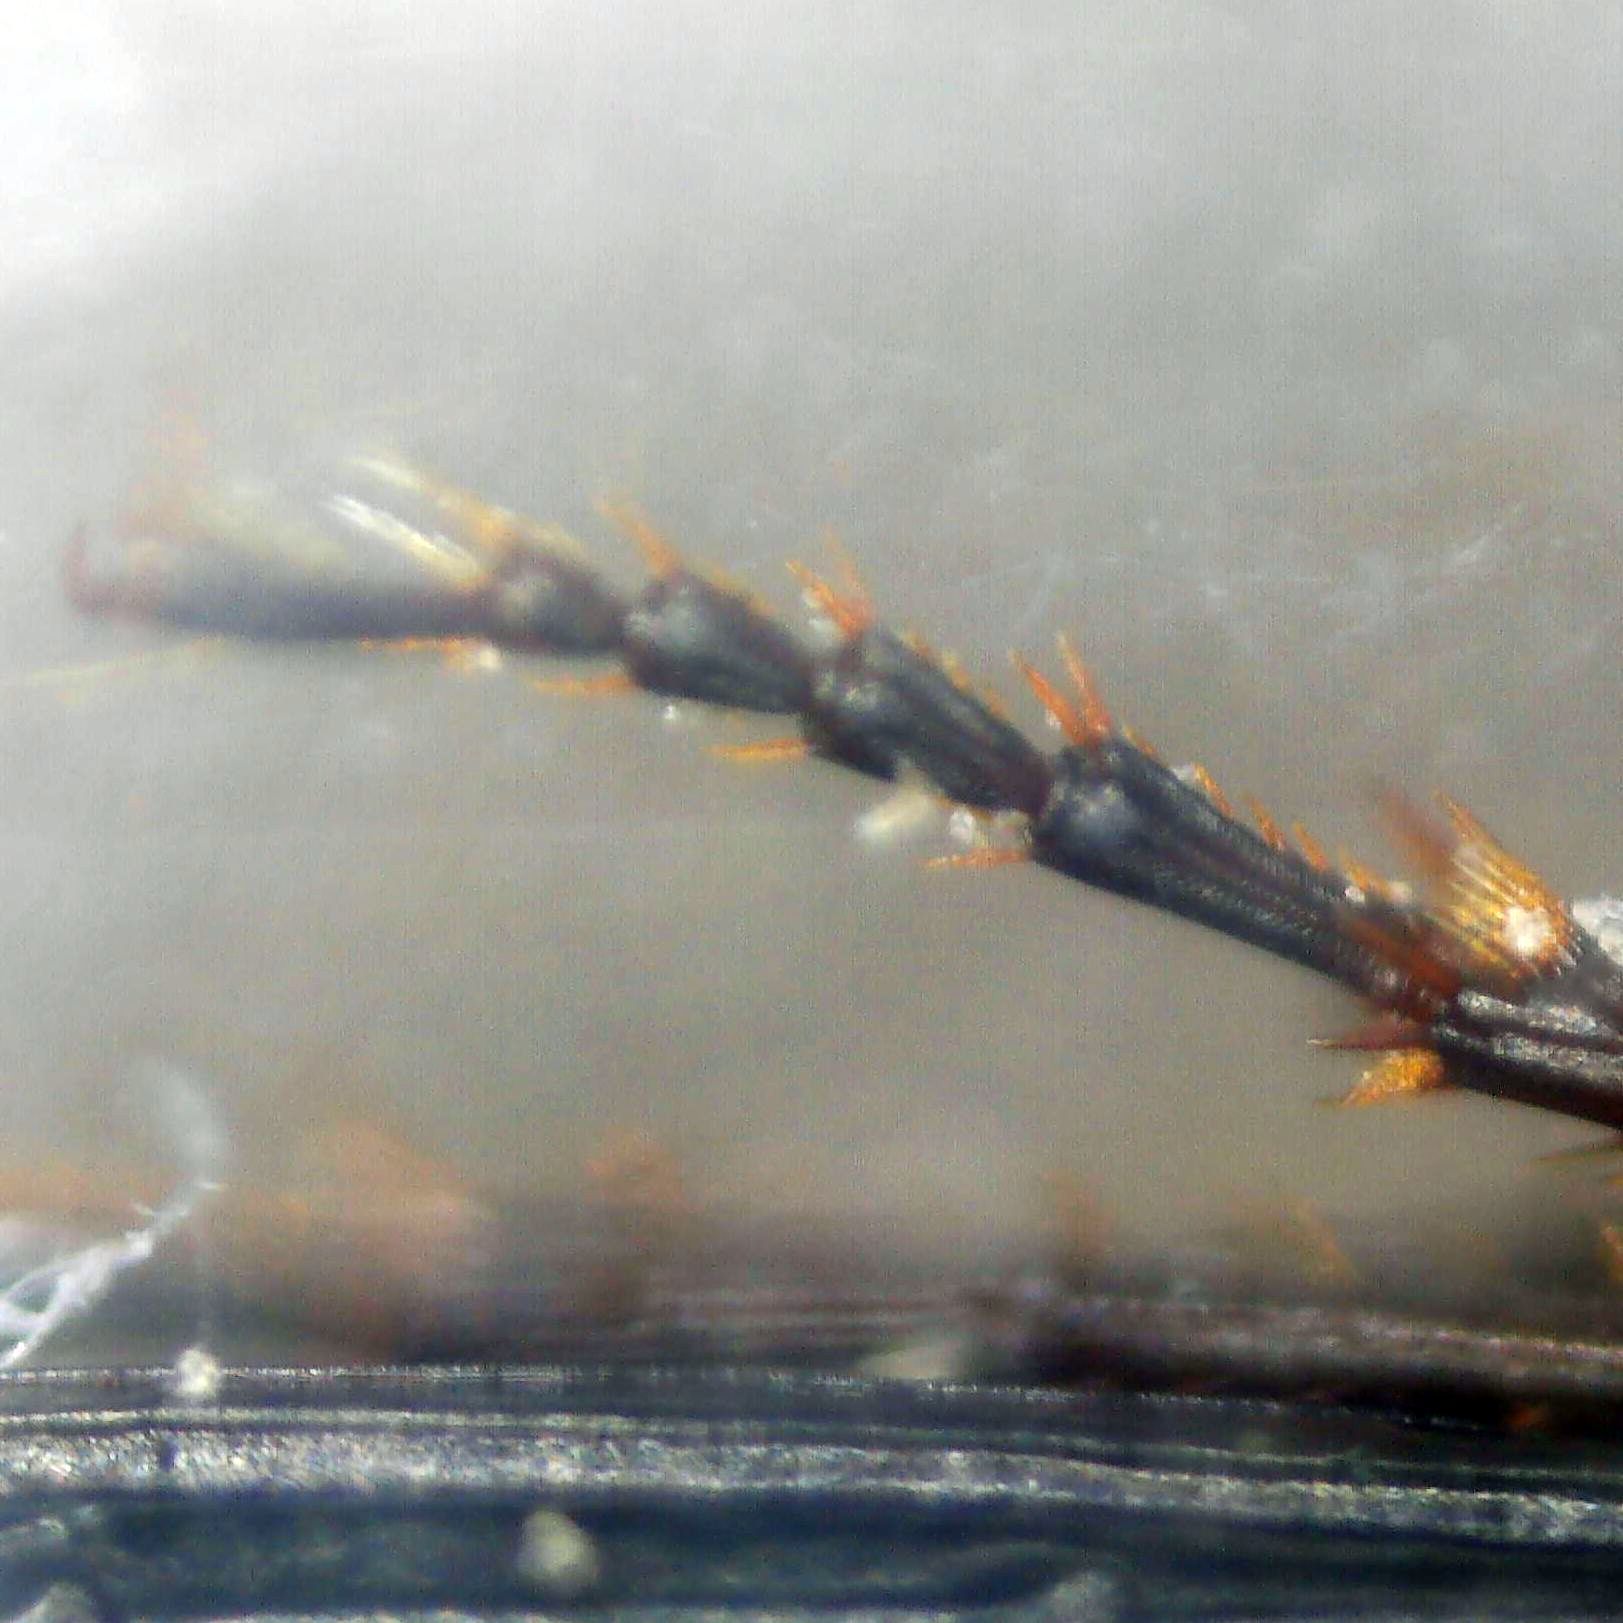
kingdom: Animalia
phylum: Arthropoda
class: Insecta
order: Coleoptera
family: Carabidae
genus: Pterostichus
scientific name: Pterostichus vernalis
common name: Spring harp ground beetle
